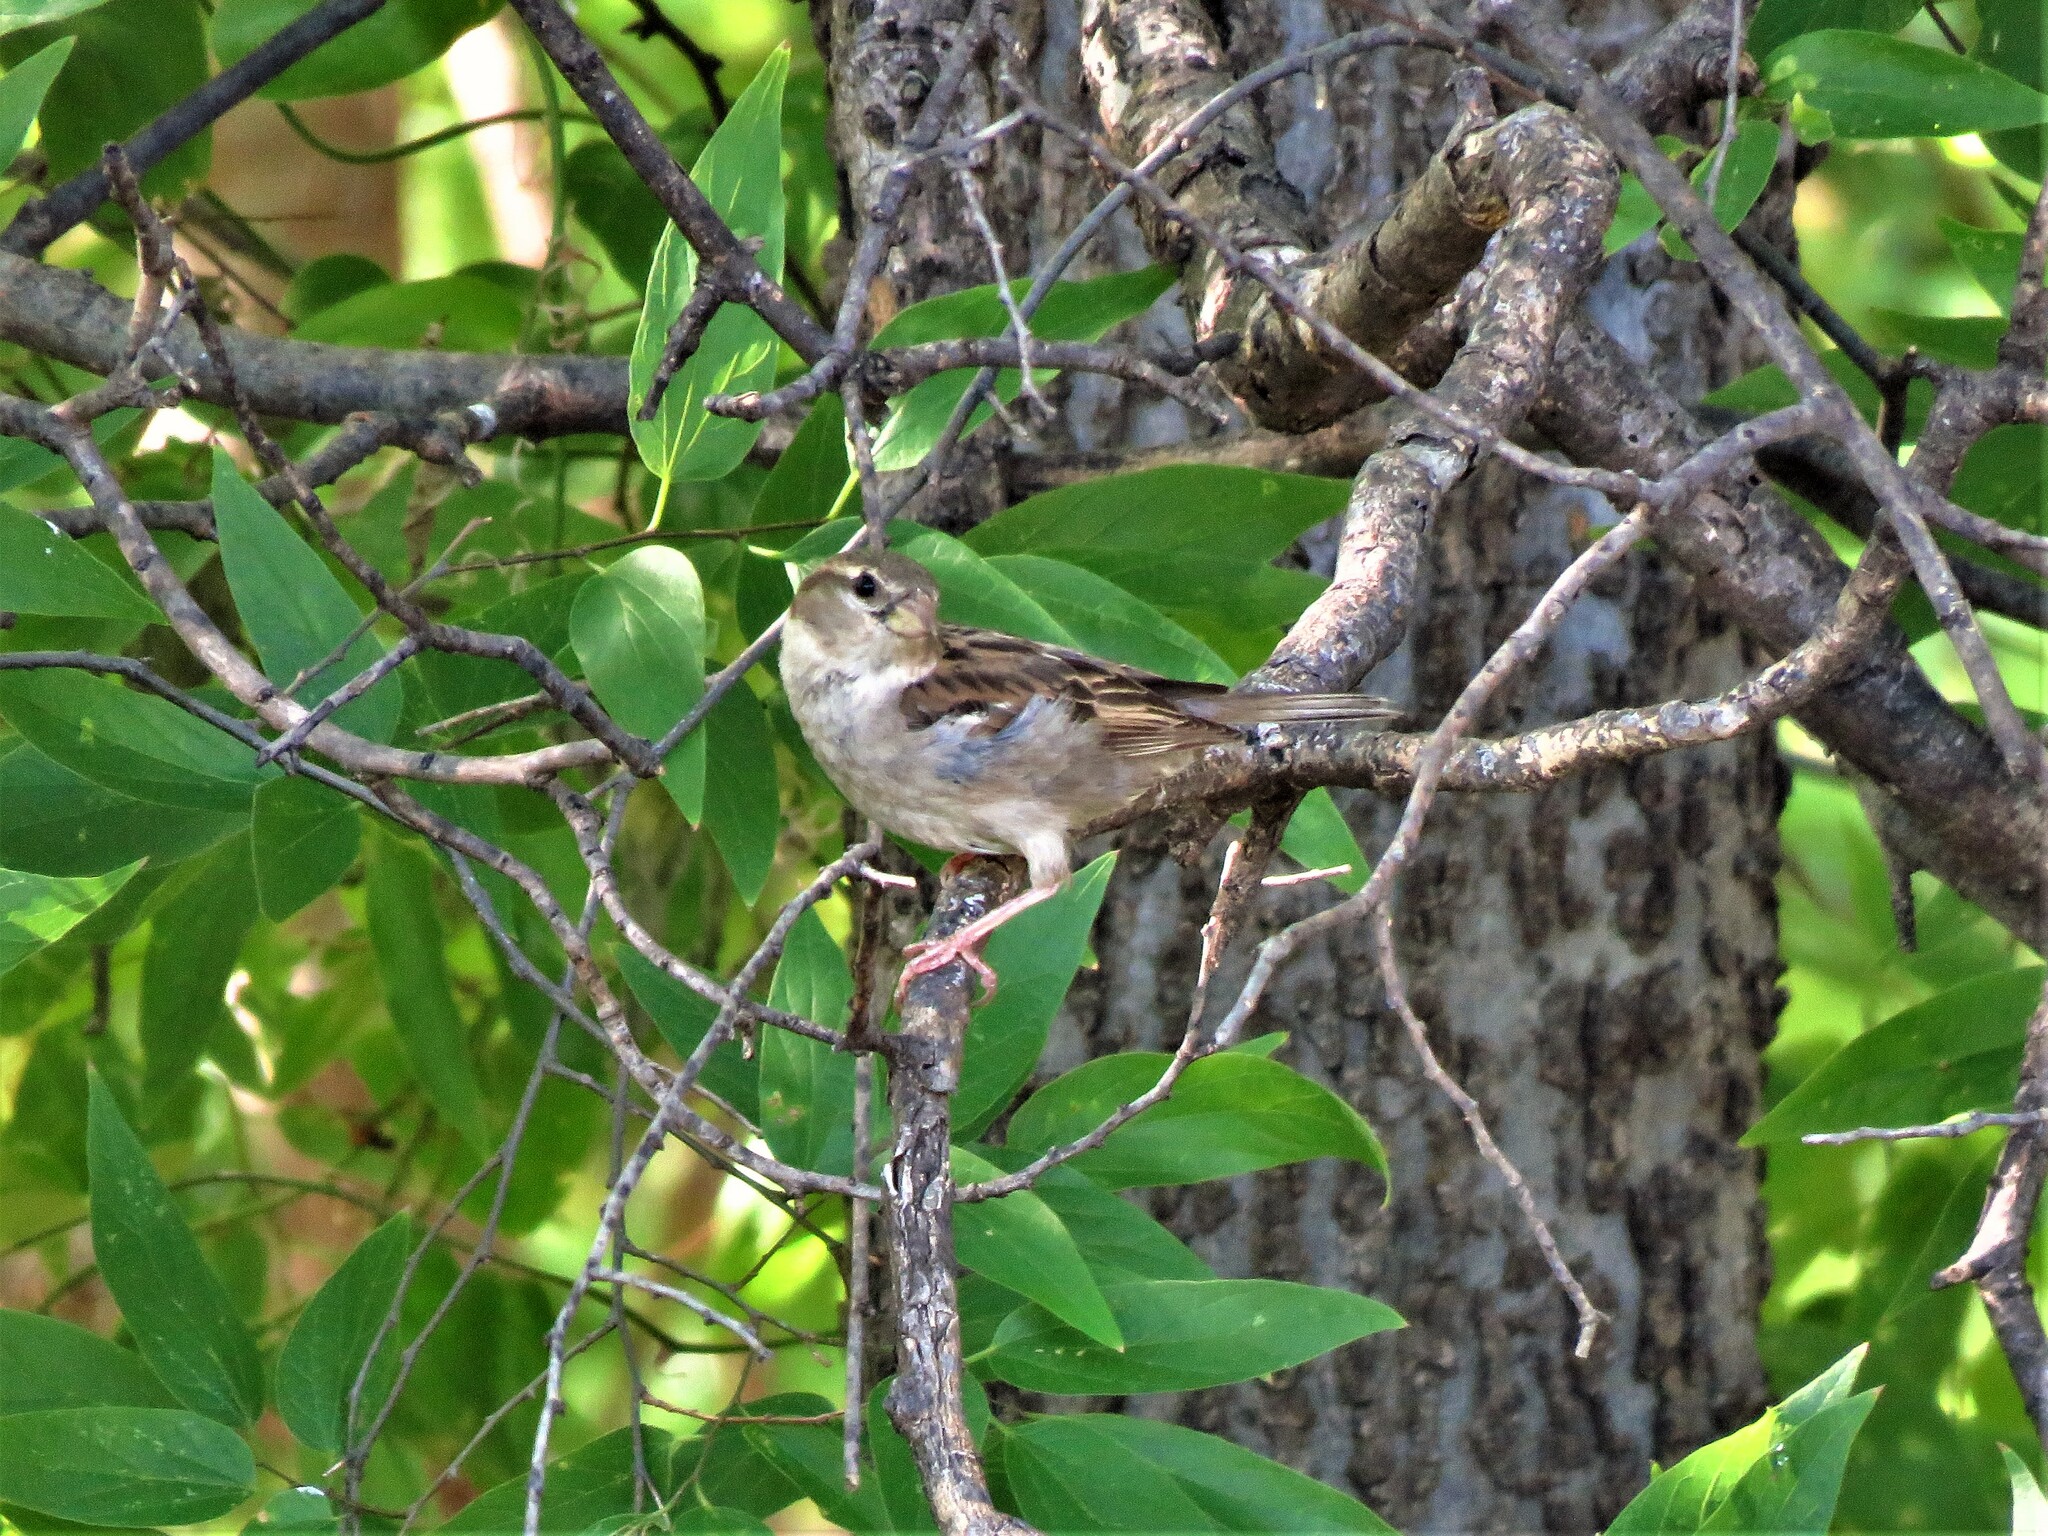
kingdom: Animalia
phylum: Chordata
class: Aves
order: Passeriformes
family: Passeridae
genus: Passer
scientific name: Passer domesticus
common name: House sparrow
